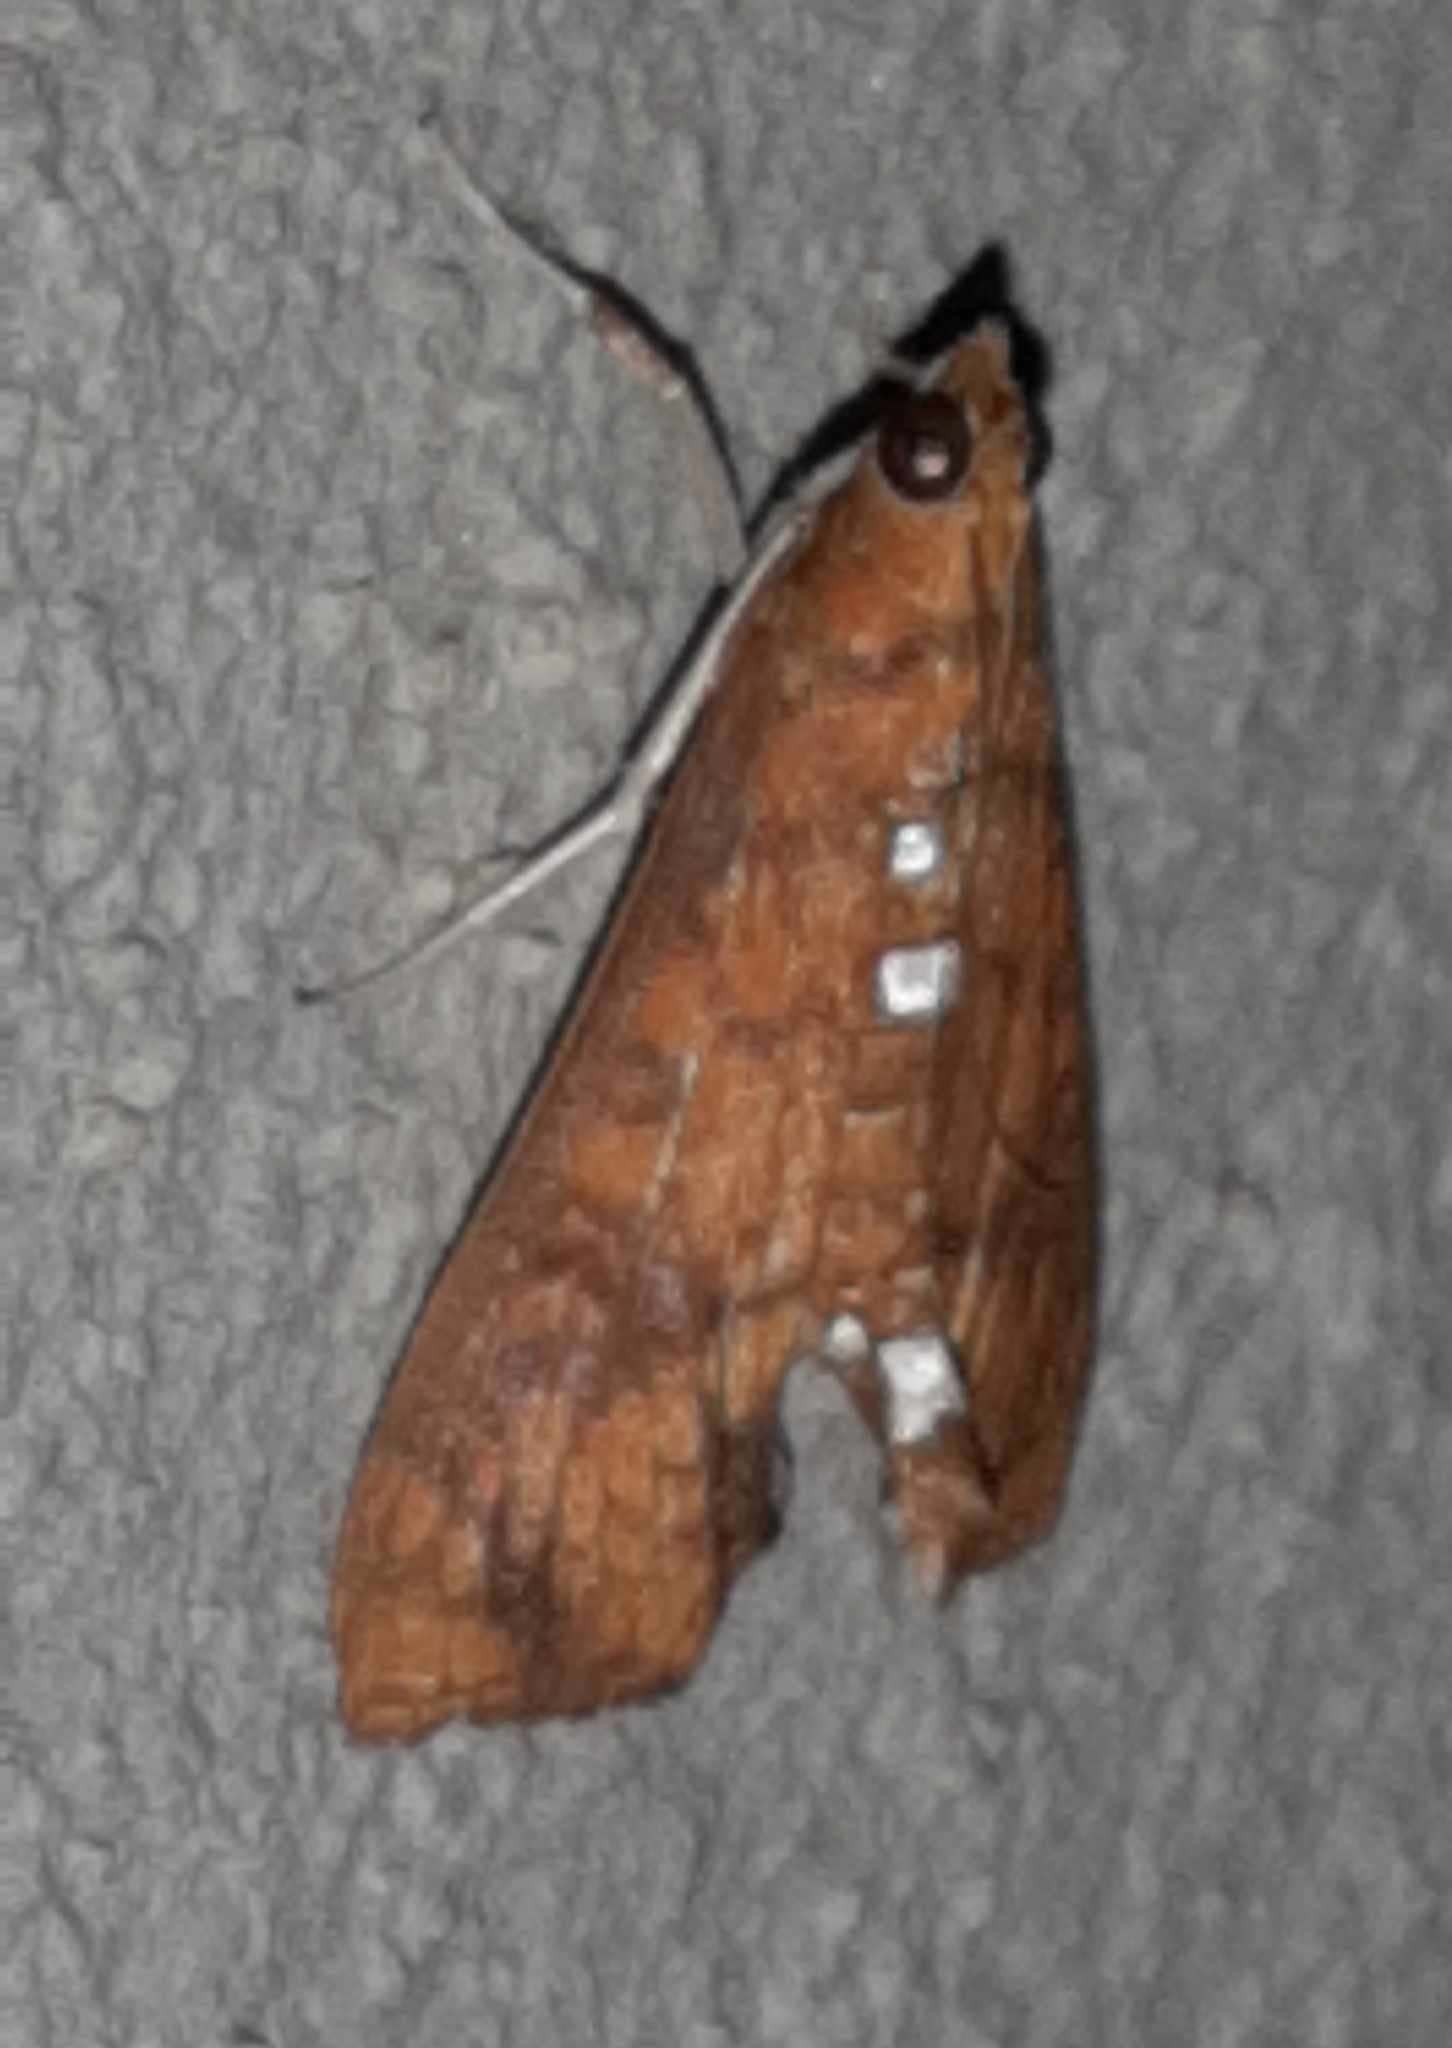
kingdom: Animalia
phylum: Arthropoda
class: Insecta
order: Lepidoptera
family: Crambidae
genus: Liopasia
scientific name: Liopasia ochracealis
